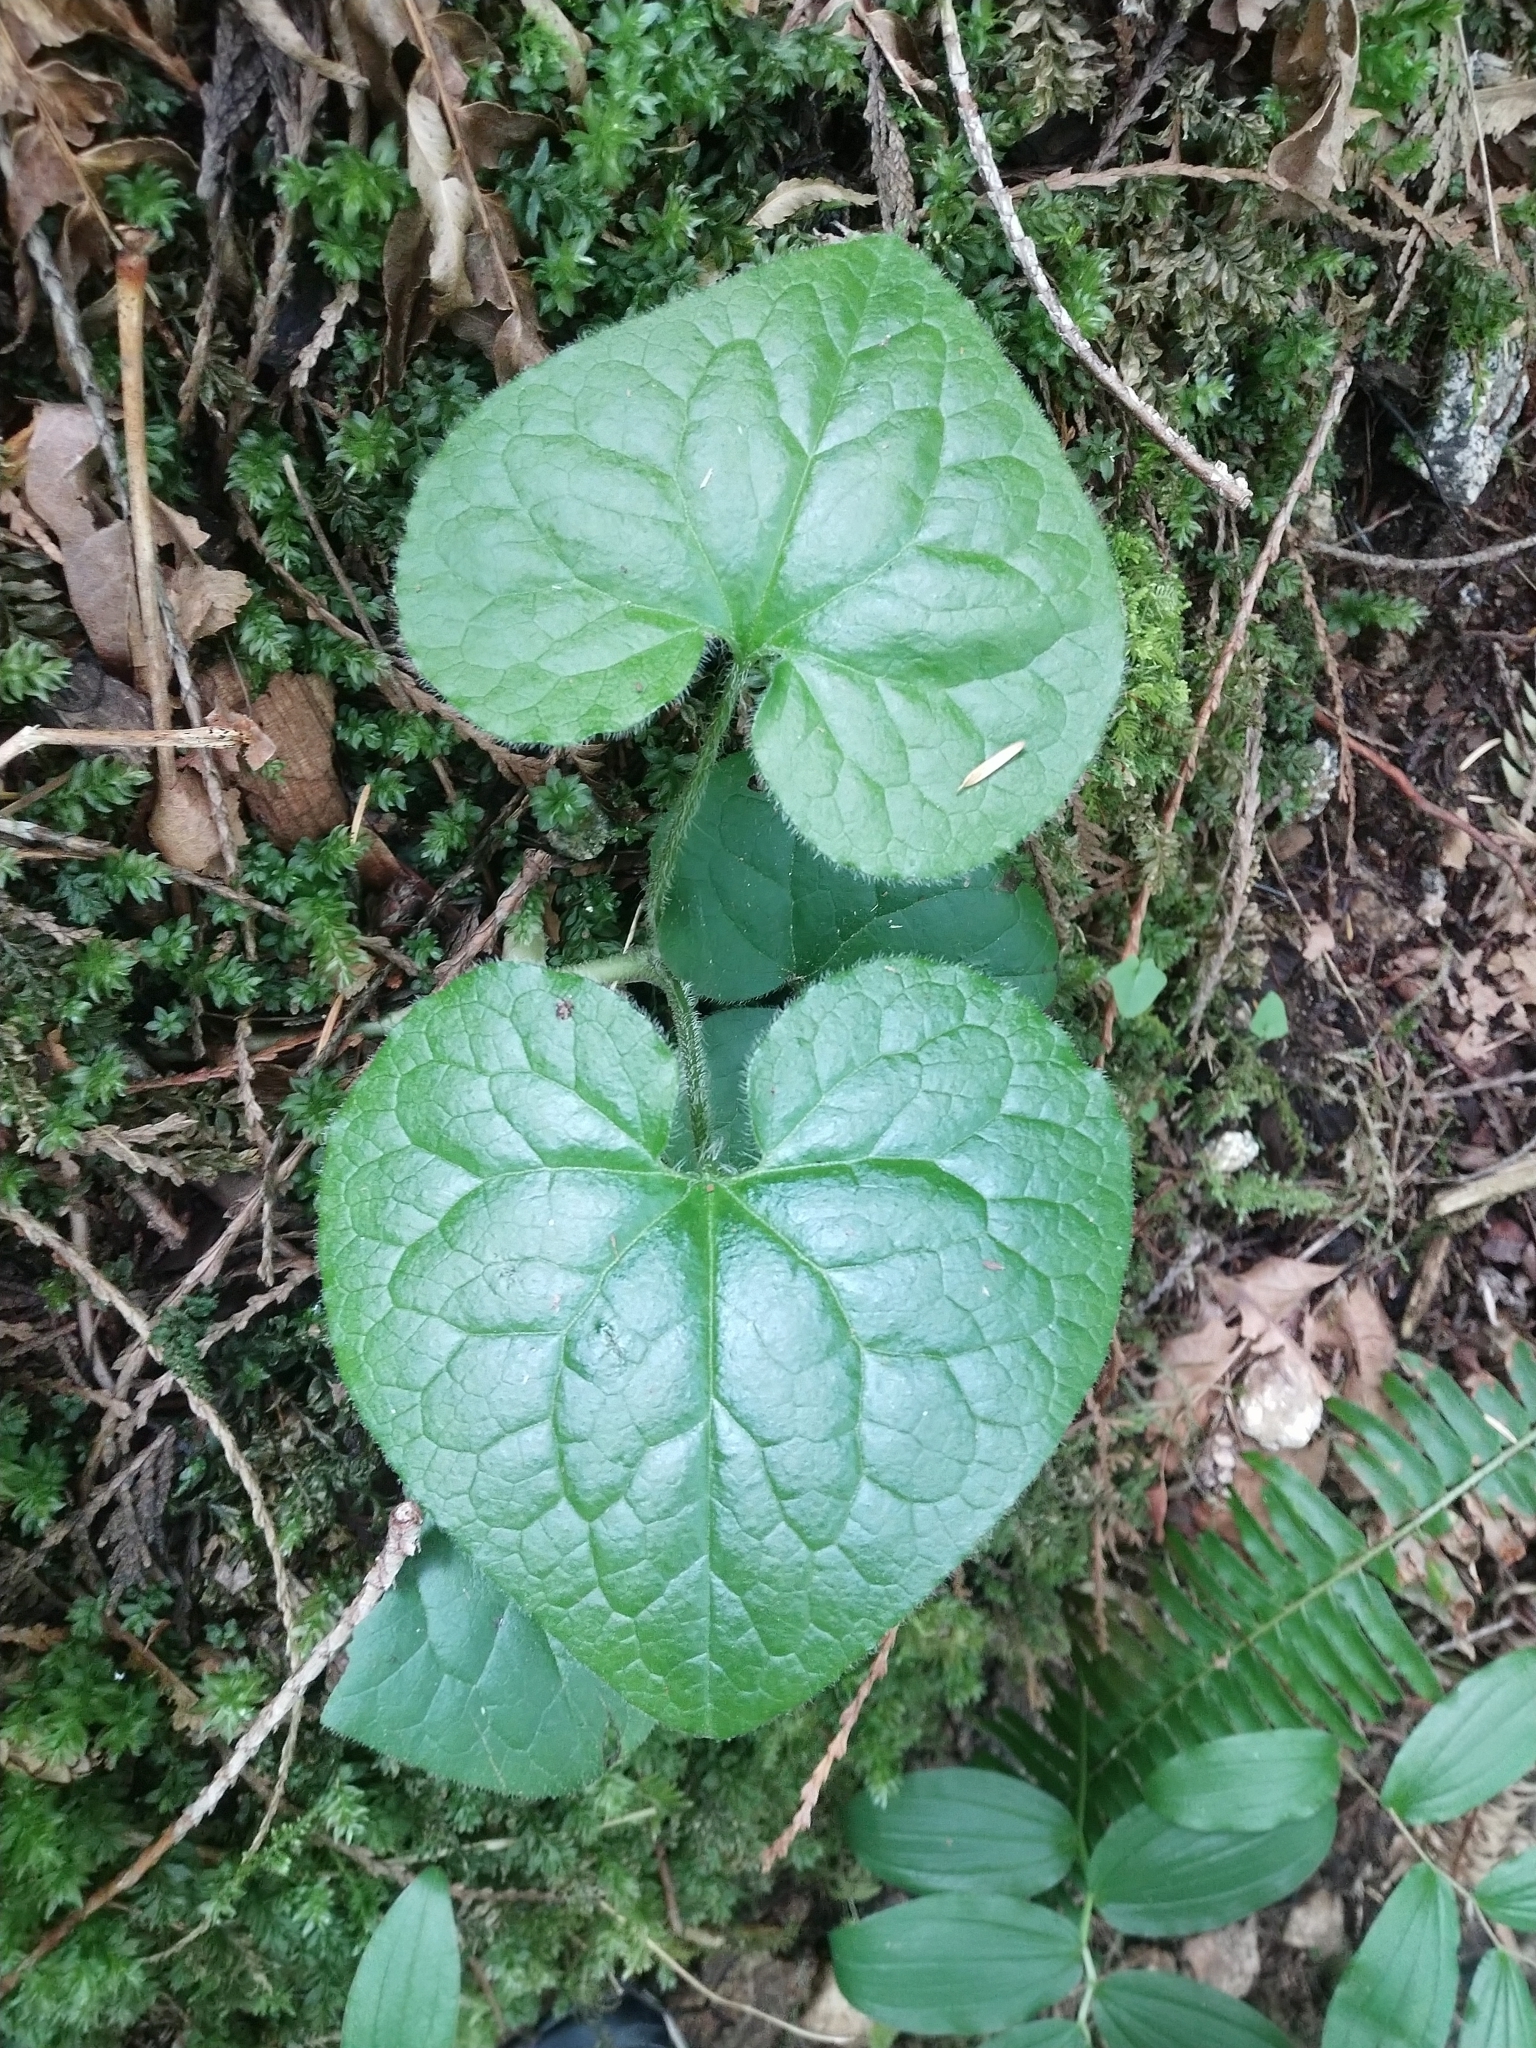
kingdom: Plantae
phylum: Tracheophyta
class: Magnoliopsida
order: Piperales
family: Aristolochiaceae
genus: Asarum
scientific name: Asarum caudatum
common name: Wild ginger
